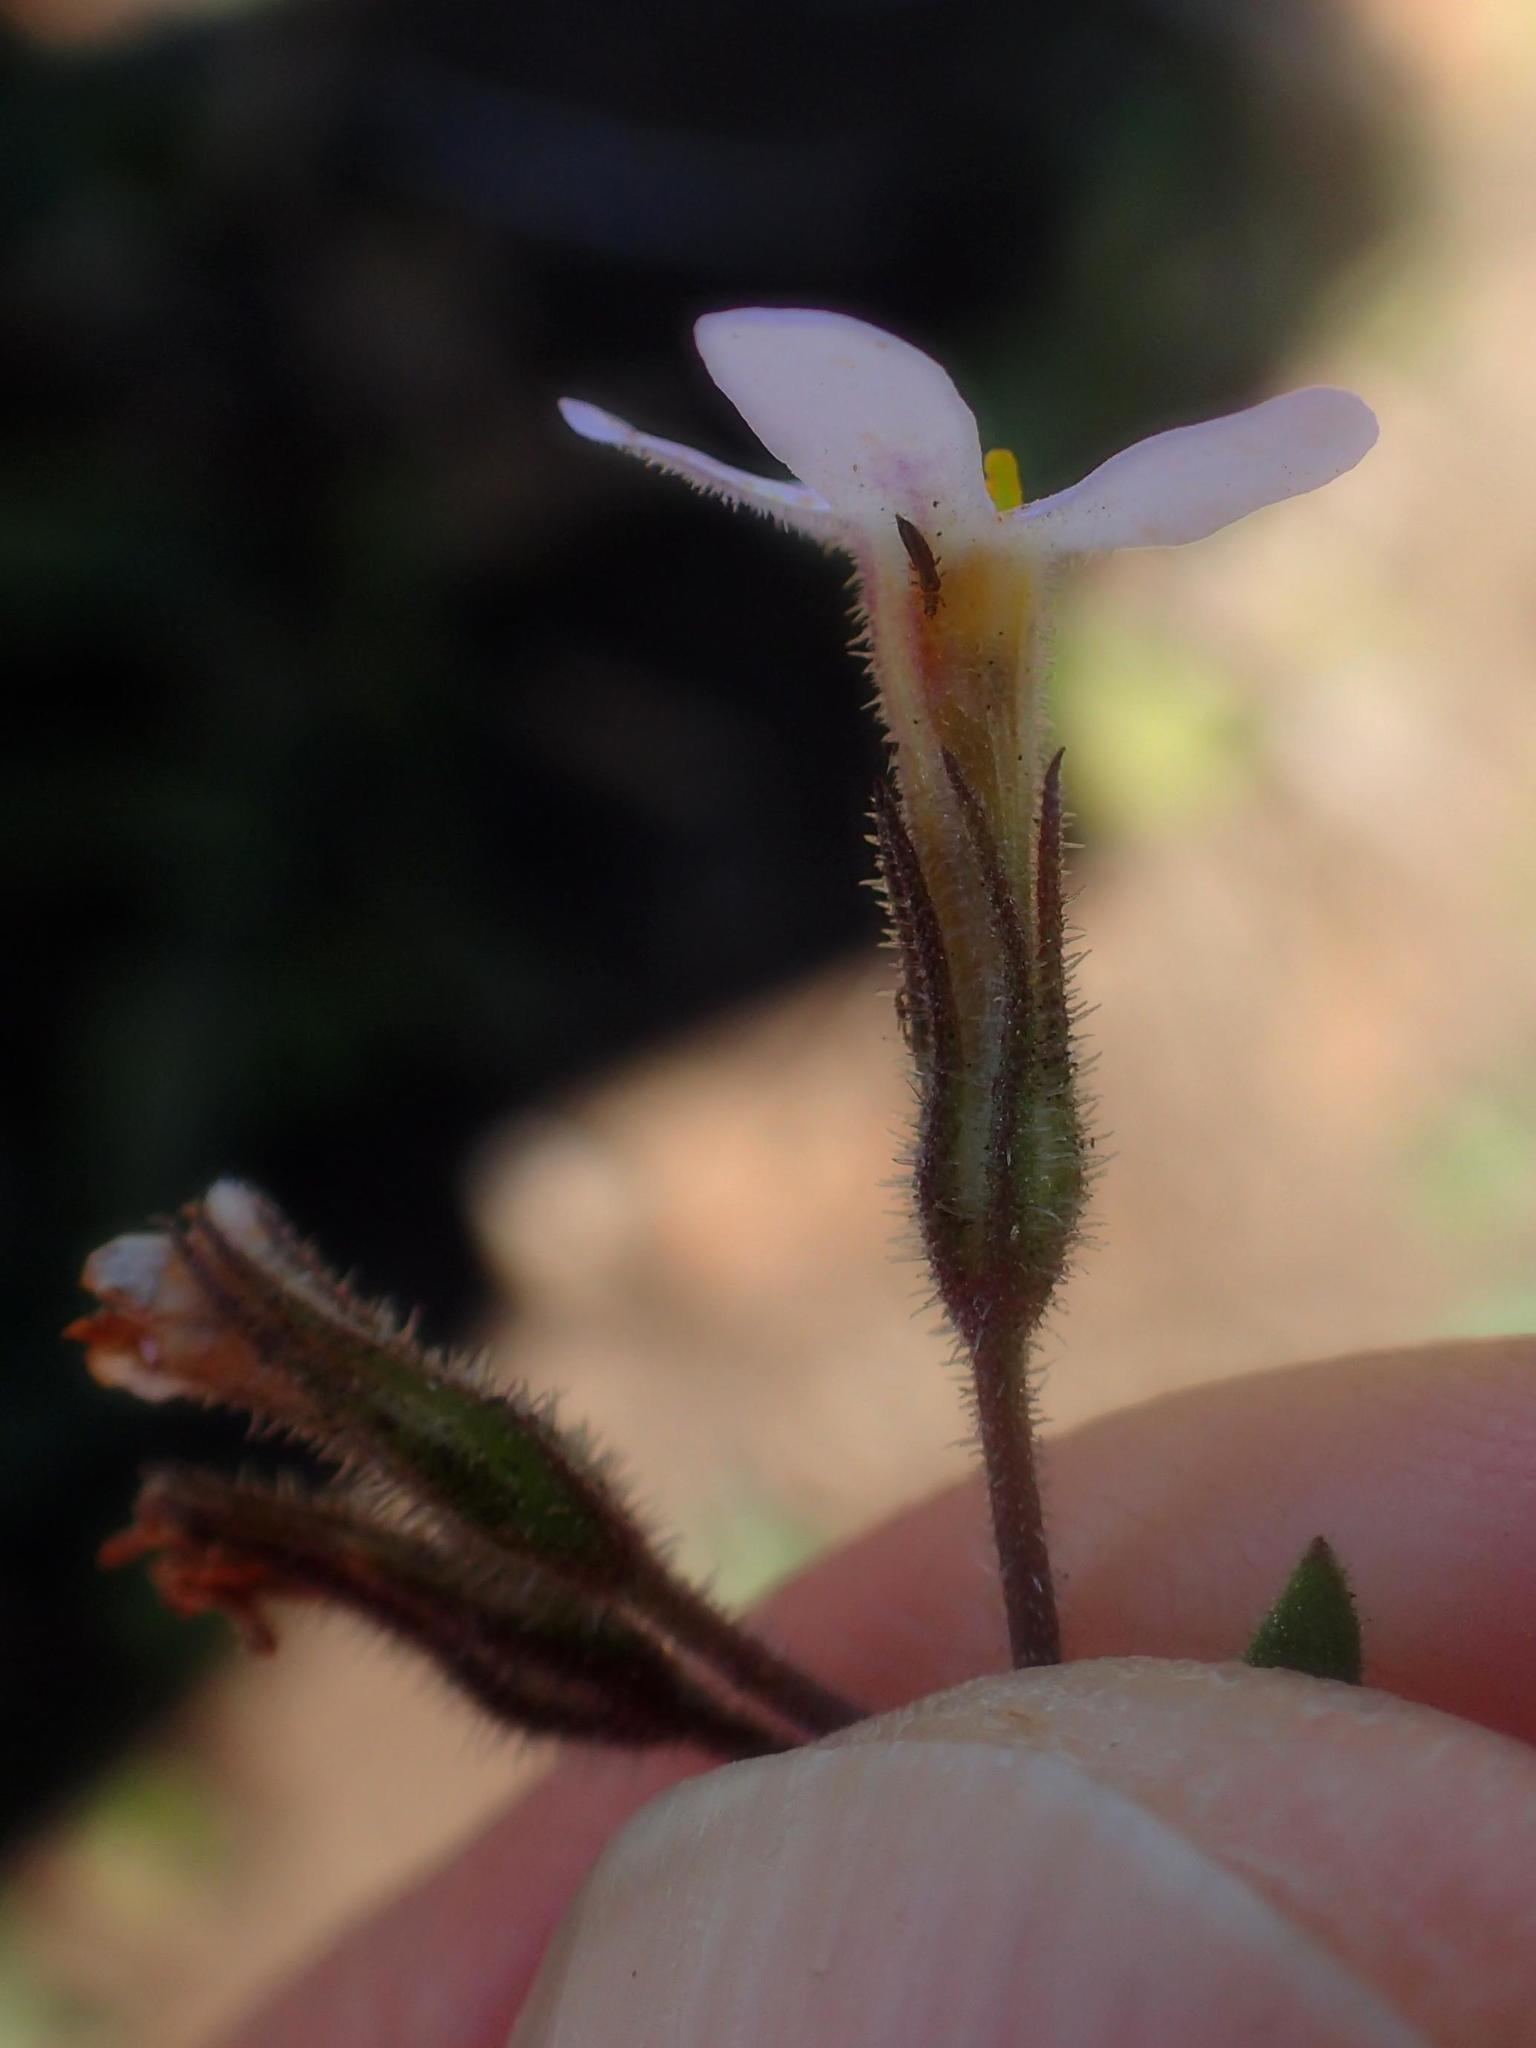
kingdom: Plantae
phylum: Tracheophyta
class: Magnoliopsida
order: Lamiales
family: Scrophulariaceae
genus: Chaenostoma
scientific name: Chaenostoma floribundum
